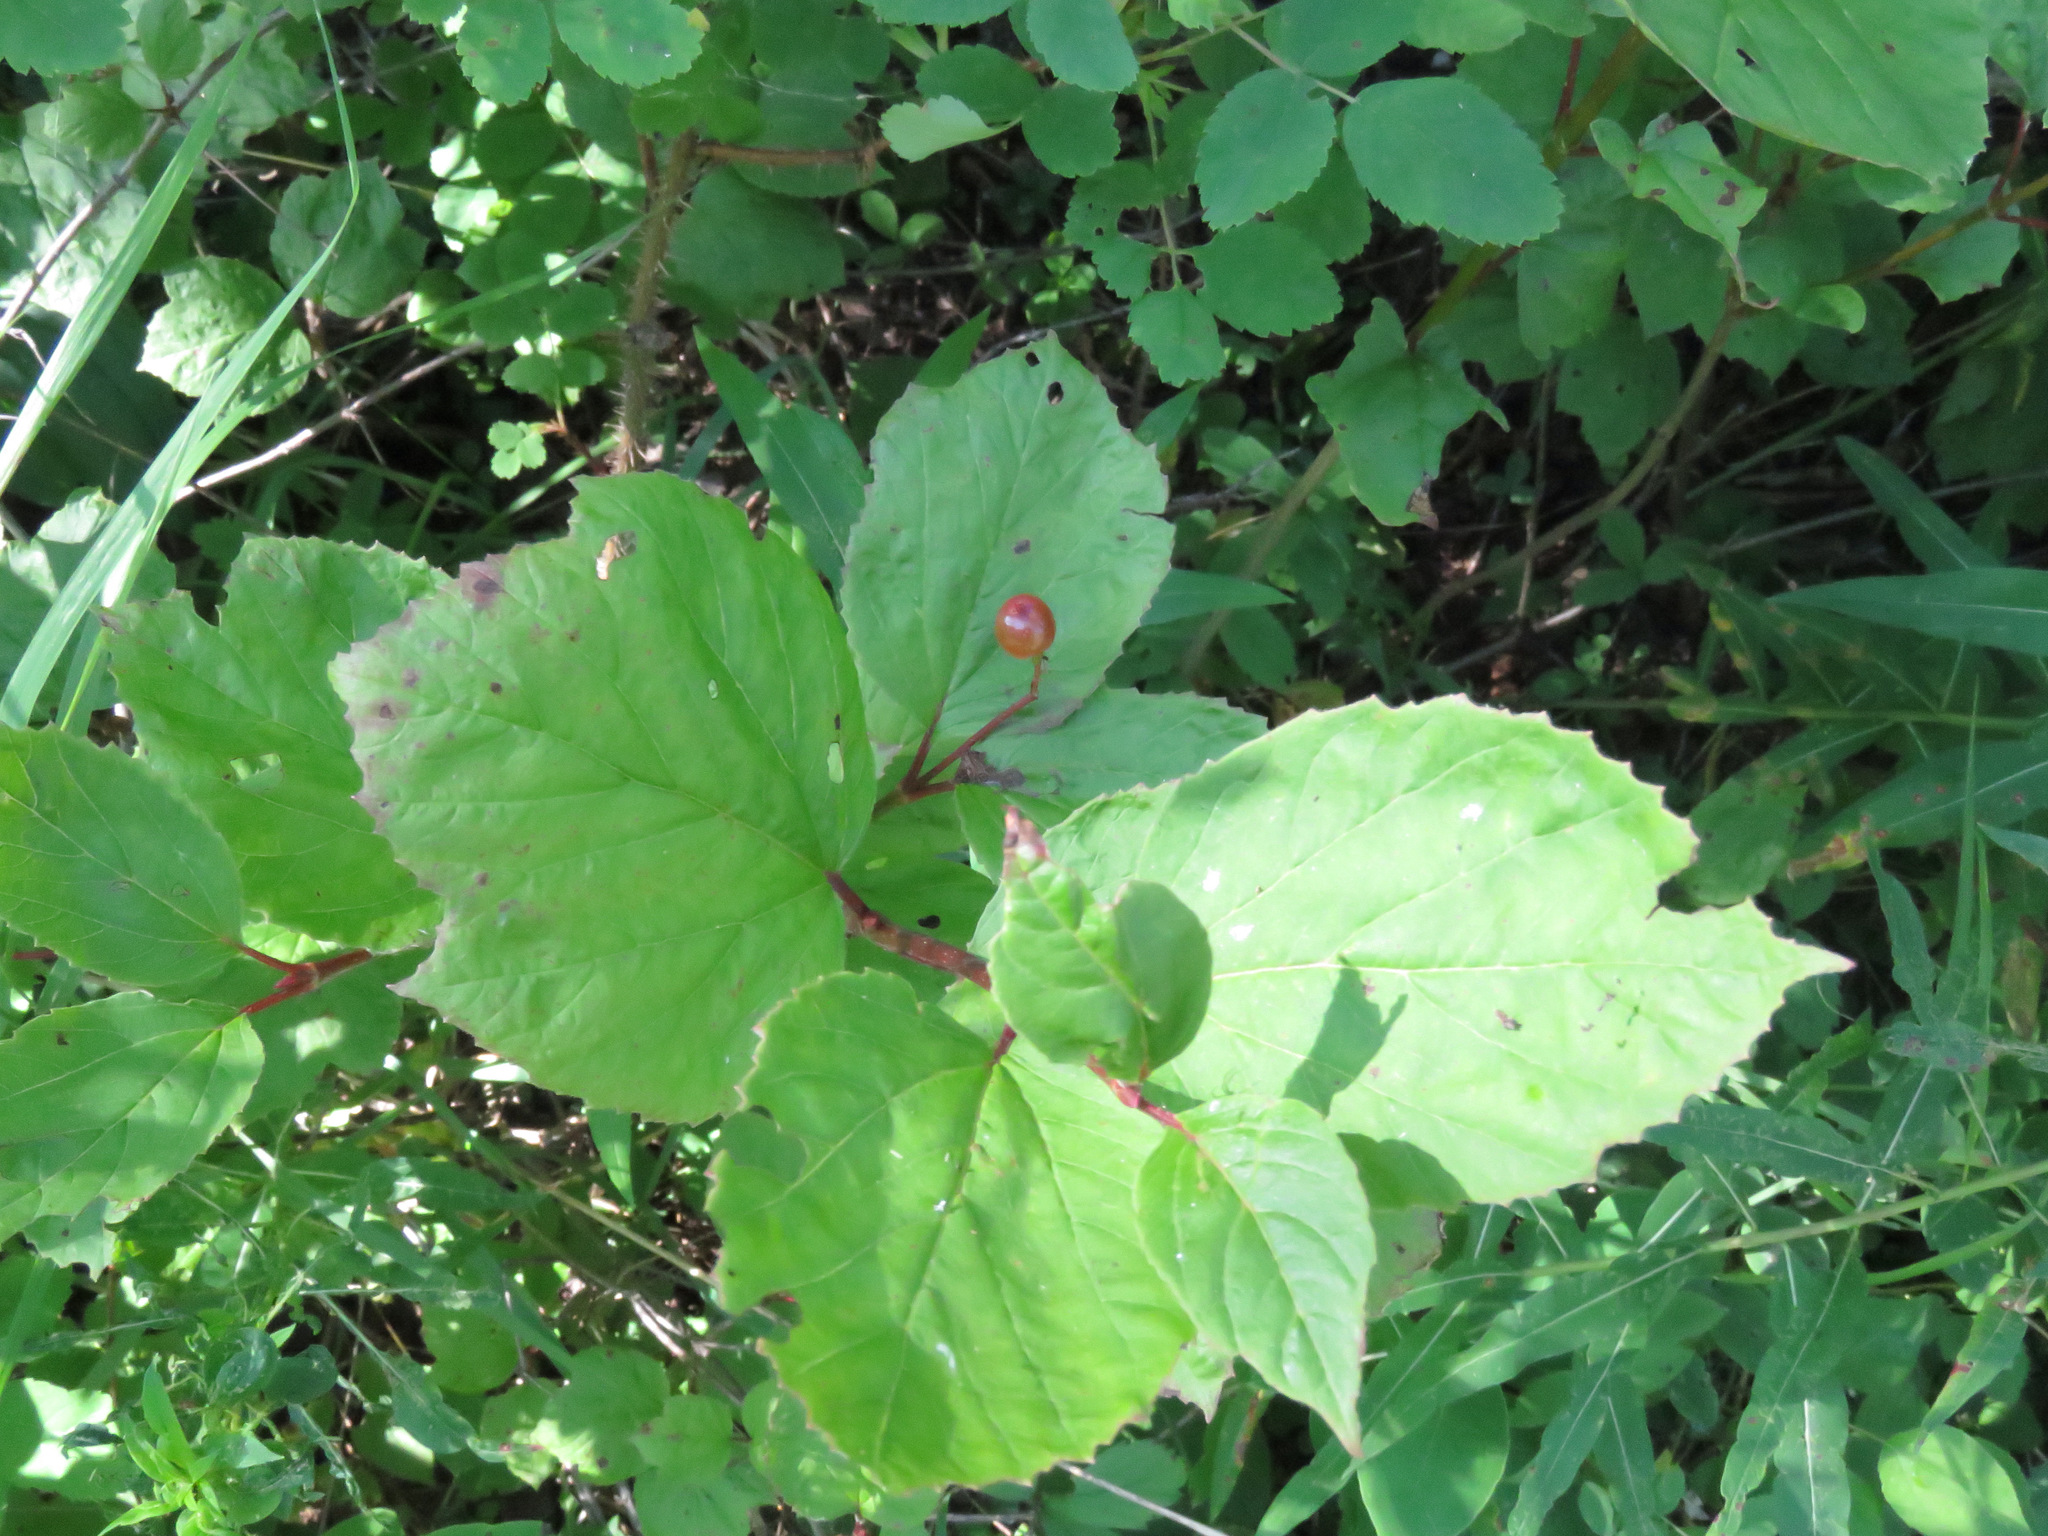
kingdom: Plantae
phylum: Tracheophyta
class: Magnoliopsida
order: Dipsacales
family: Viburnaceae
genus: Viburnum
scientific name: Viburnum edule
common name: Mooseberry
